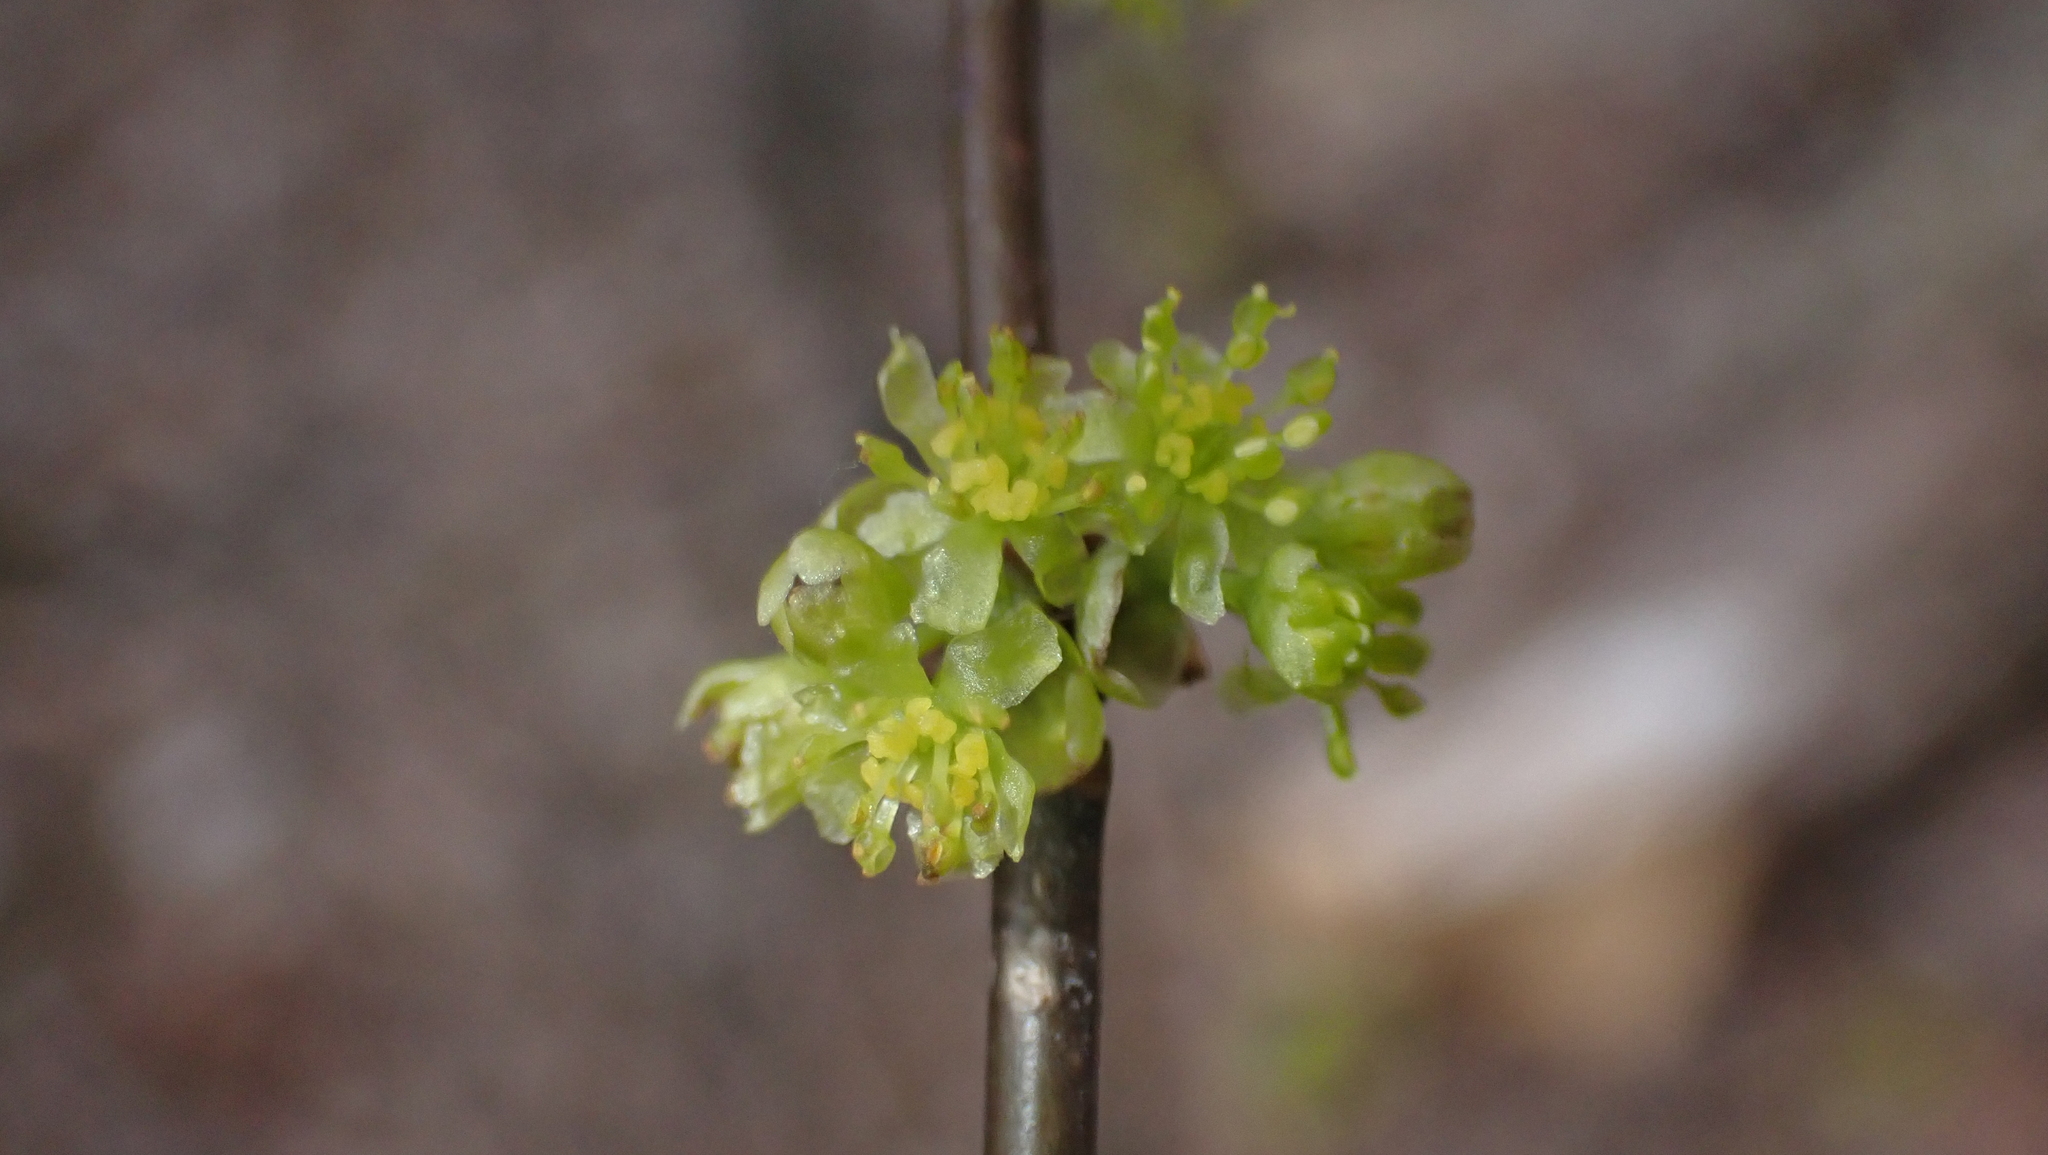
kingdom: Plantae
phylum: Tracheophyta
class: Magnoliopsida
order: Laurales
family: Lauraceae
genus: Lindera
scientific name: Lindera benzoin
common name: Spicebush
